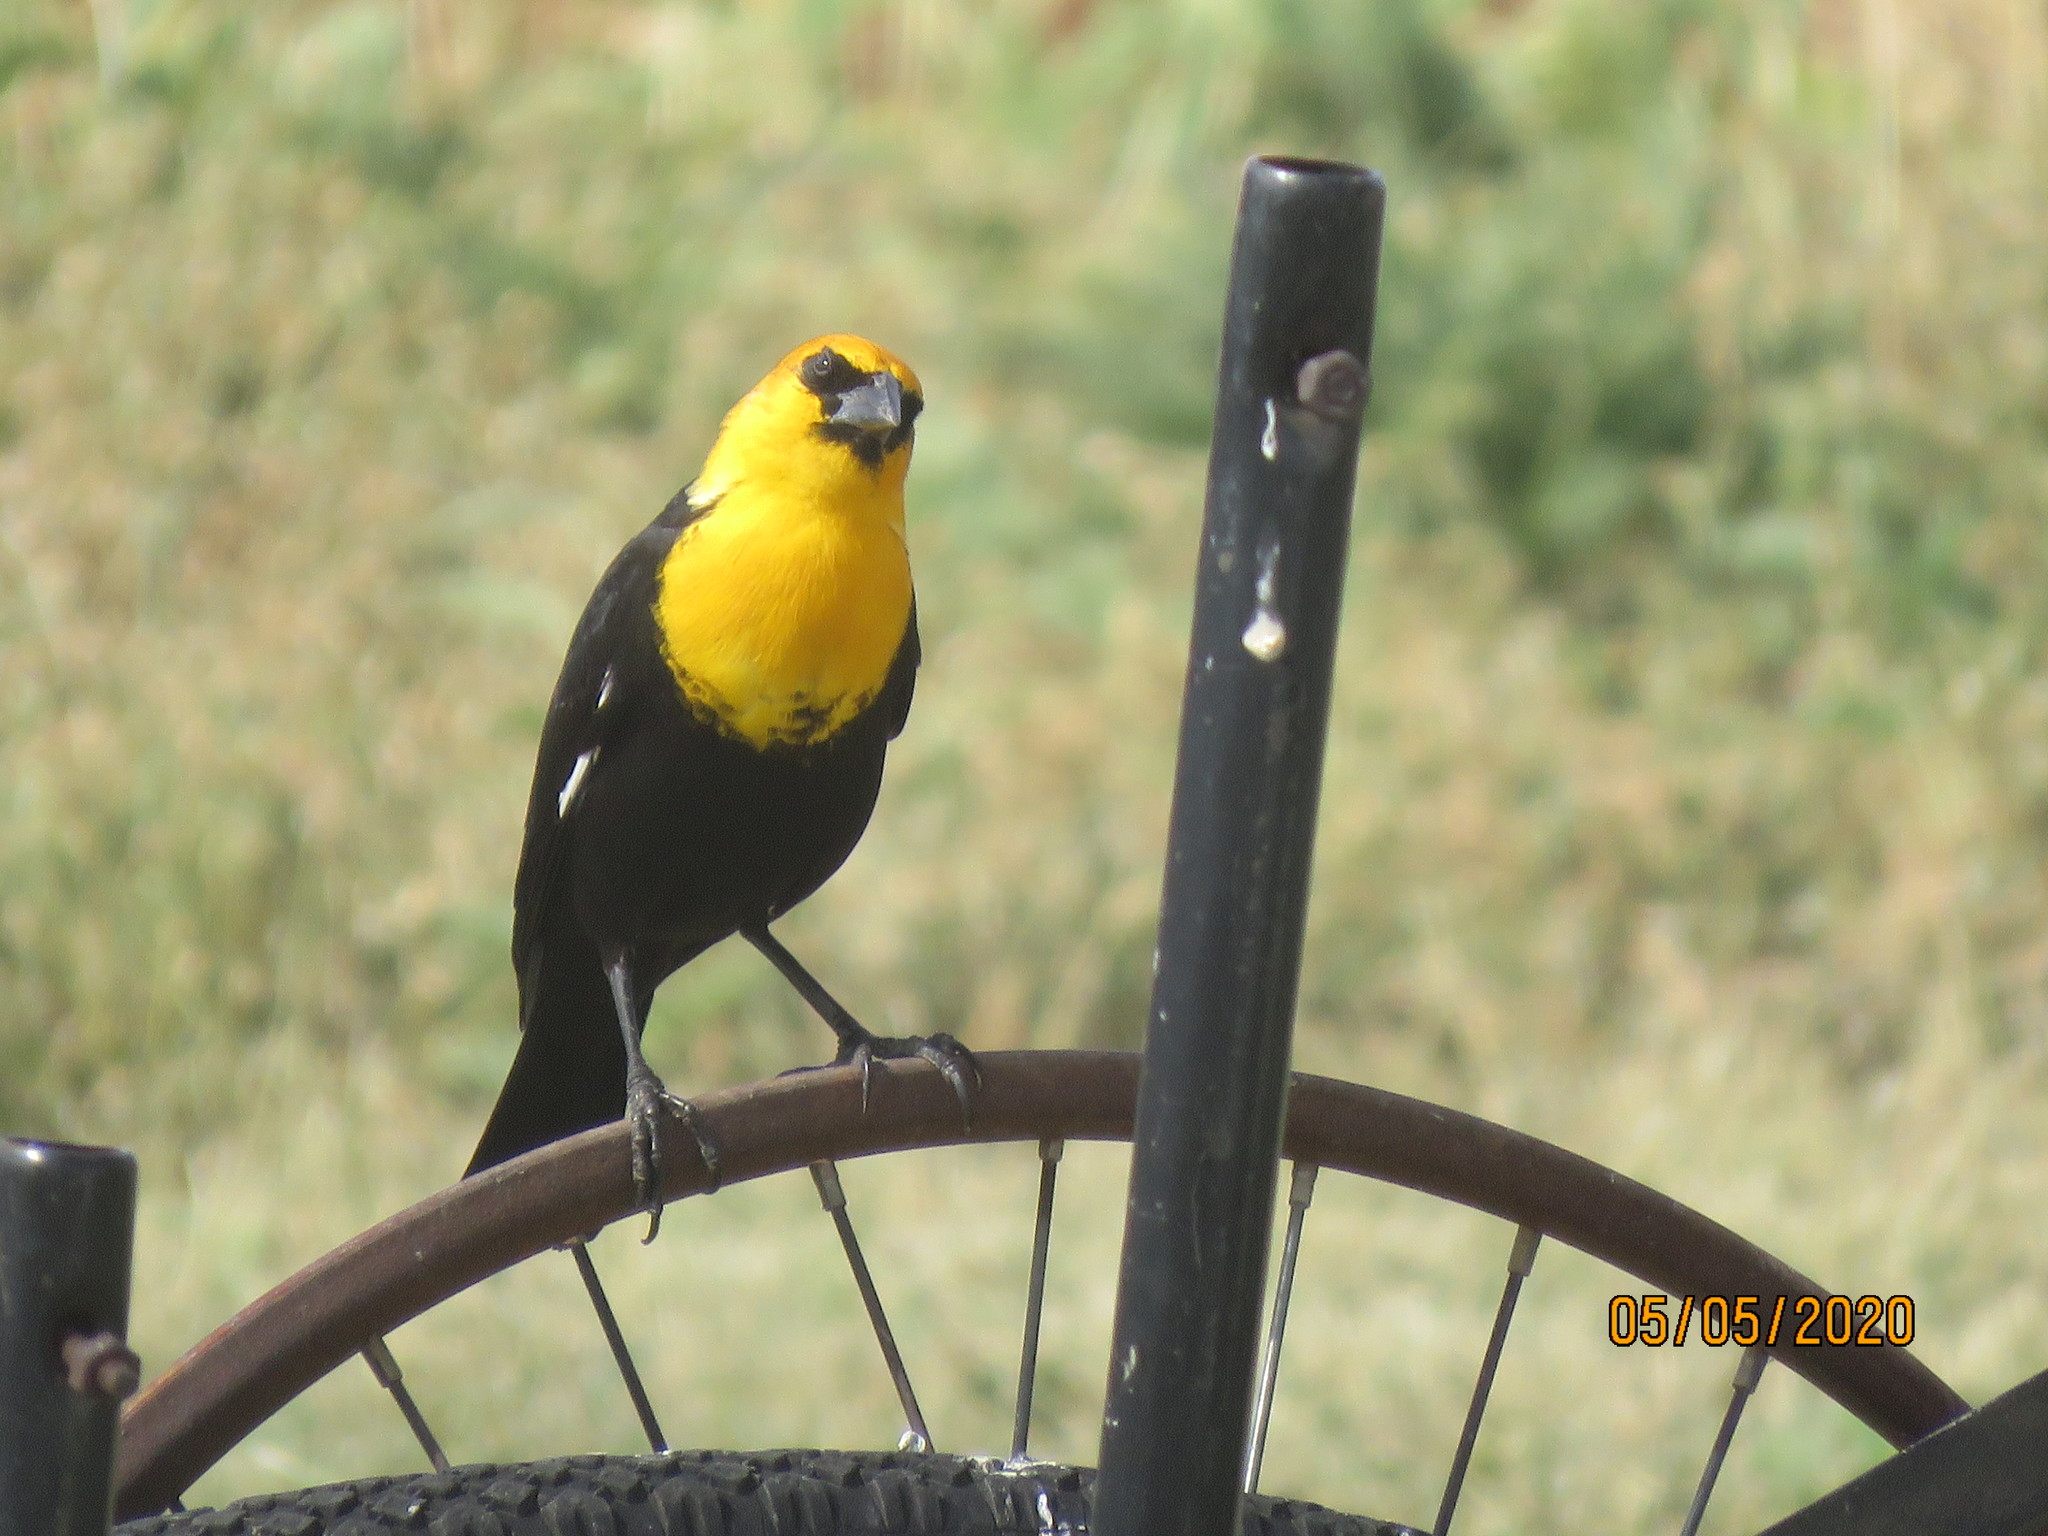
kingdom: Animalia
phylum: Chordata
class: Aves
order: Passeriformes
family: Icteridae
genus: Xanthocephalus
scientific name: Xanthocephalus xanthocephalus
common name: Yellow-headed blackbird
